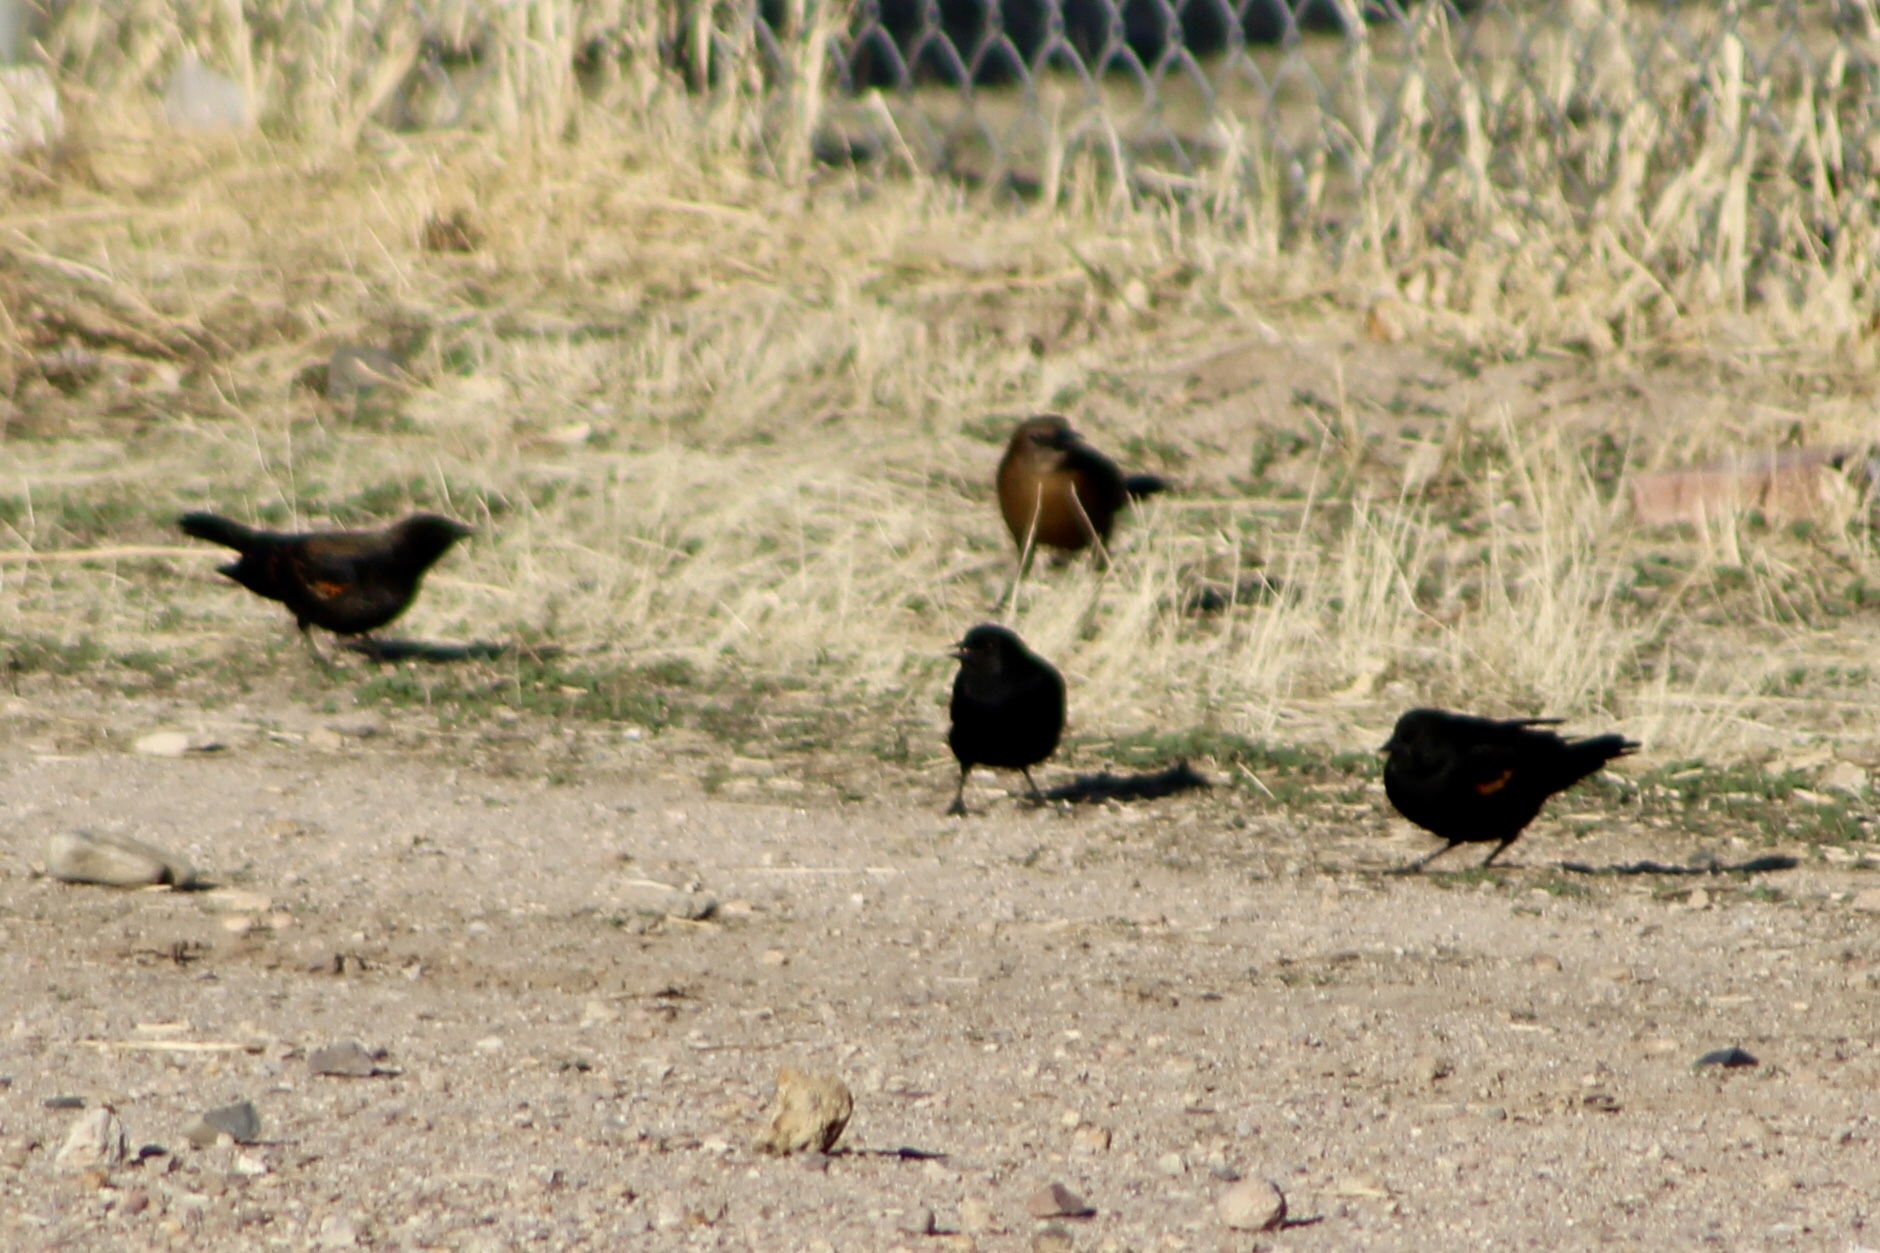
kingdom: Animalia
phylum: Chordata
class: Aves
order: Passeriformes
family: Icteridae
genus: Agelaius
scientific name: Agelaius phoeniceus
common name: Red-winged blackbird
